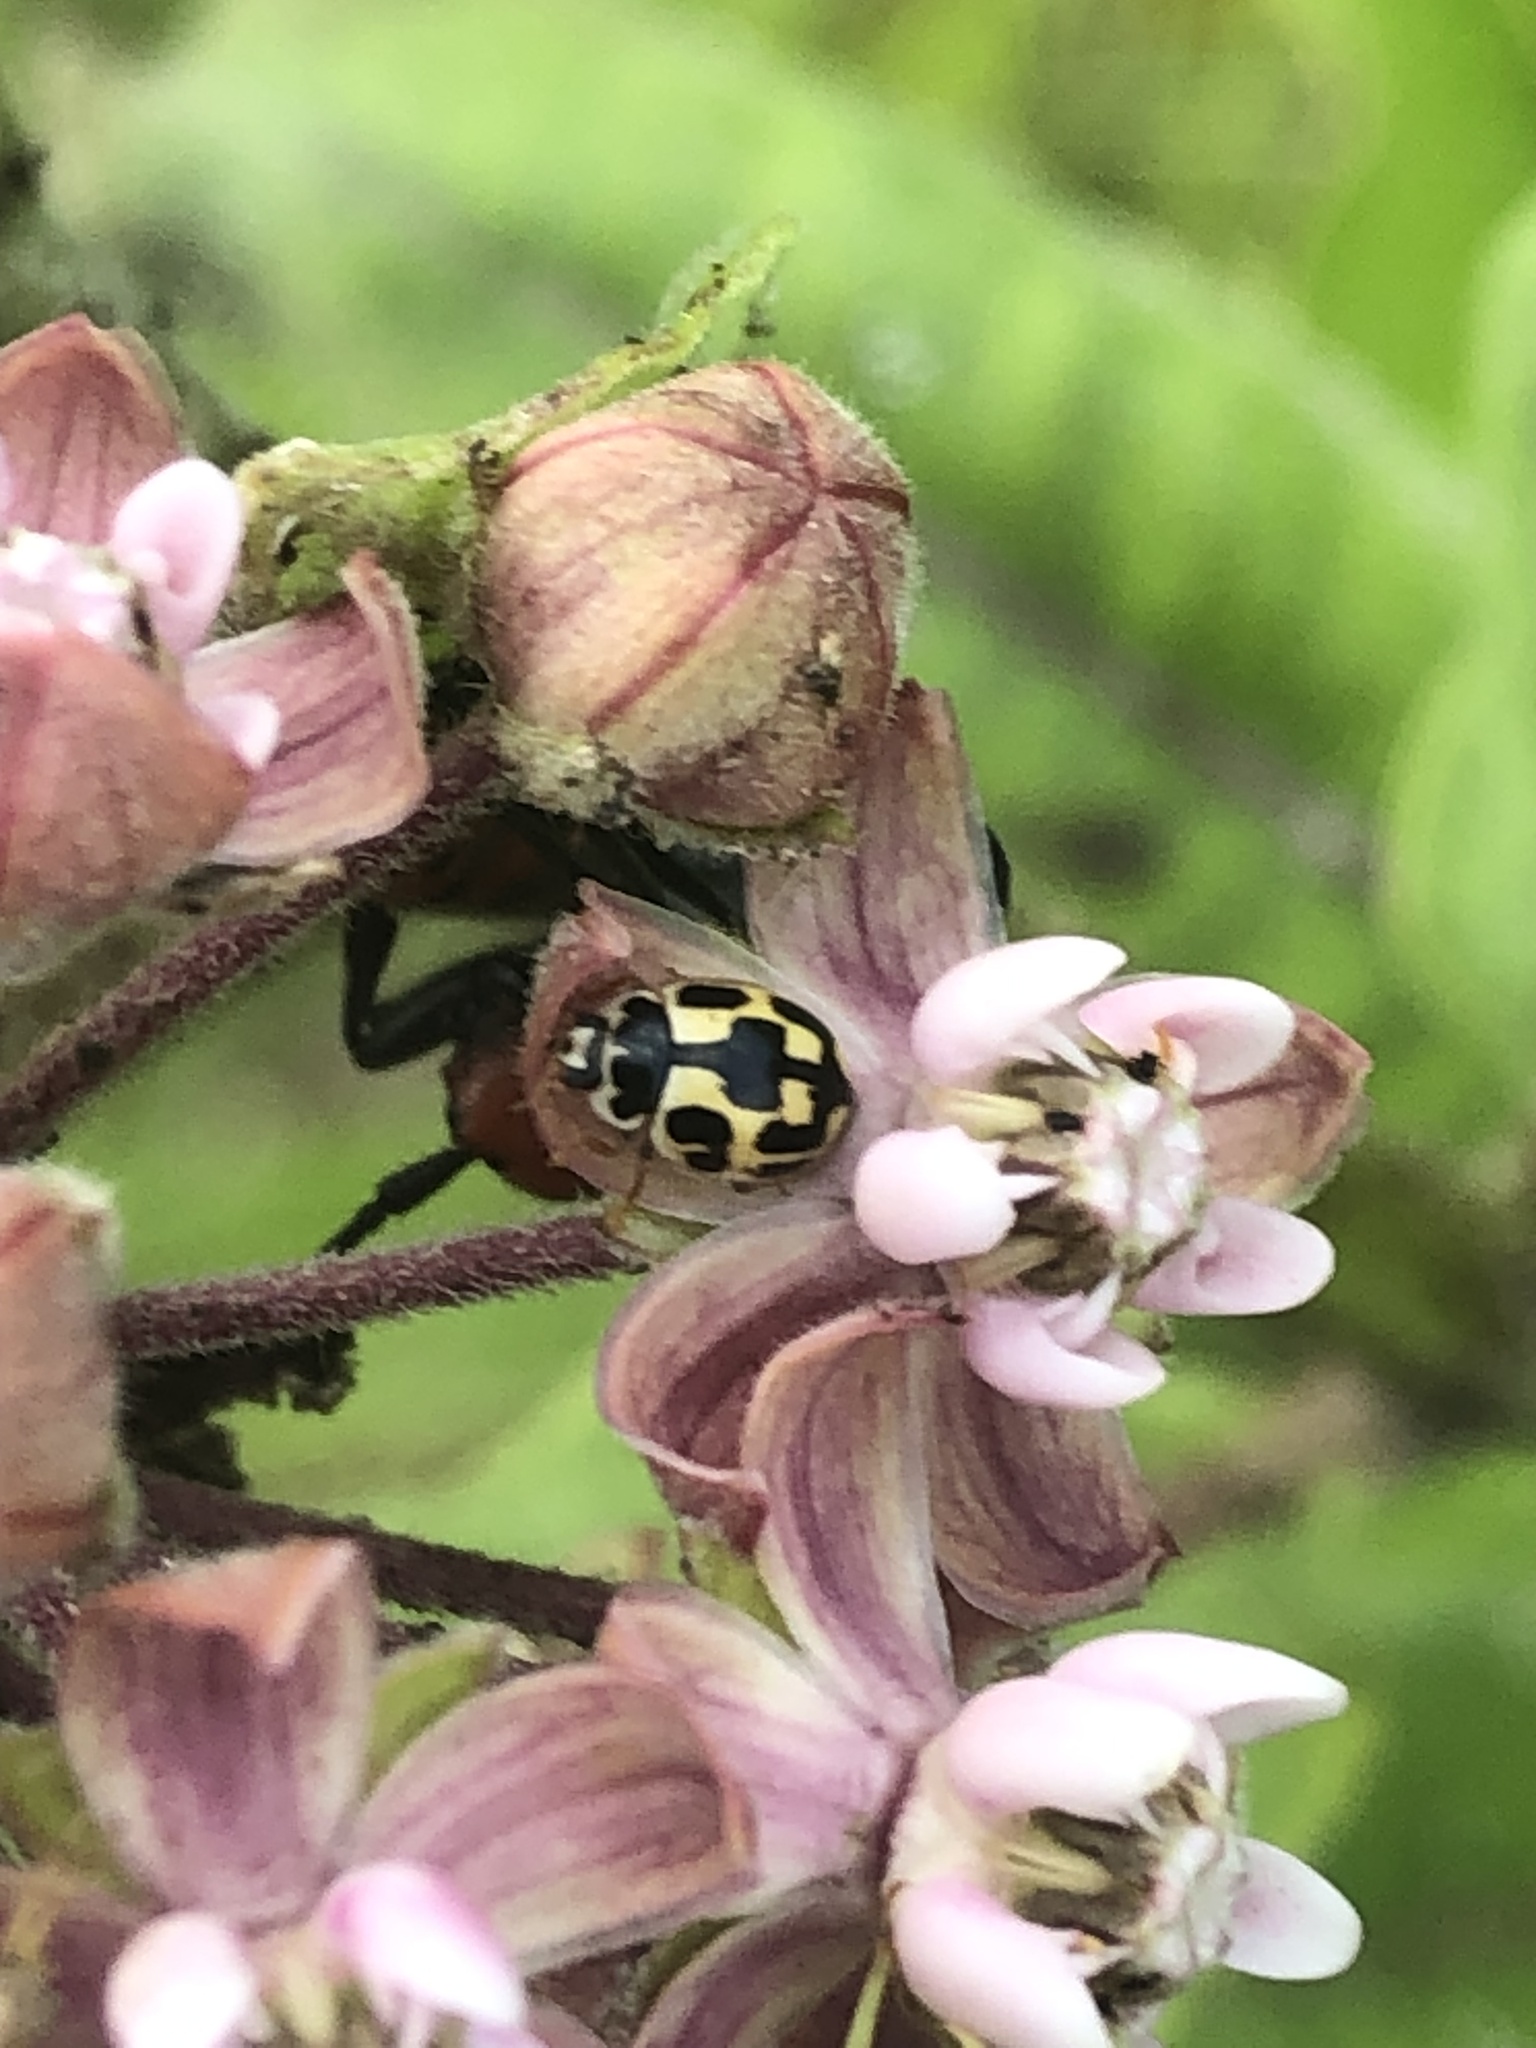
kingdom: Animalia
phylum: Arthropoda
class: Insecta
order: Coleoptera
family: Coccinellidae
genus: Propylaea
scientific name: Propylaea quatuordecimpunctata
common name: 14-spotted ladybird beetle
